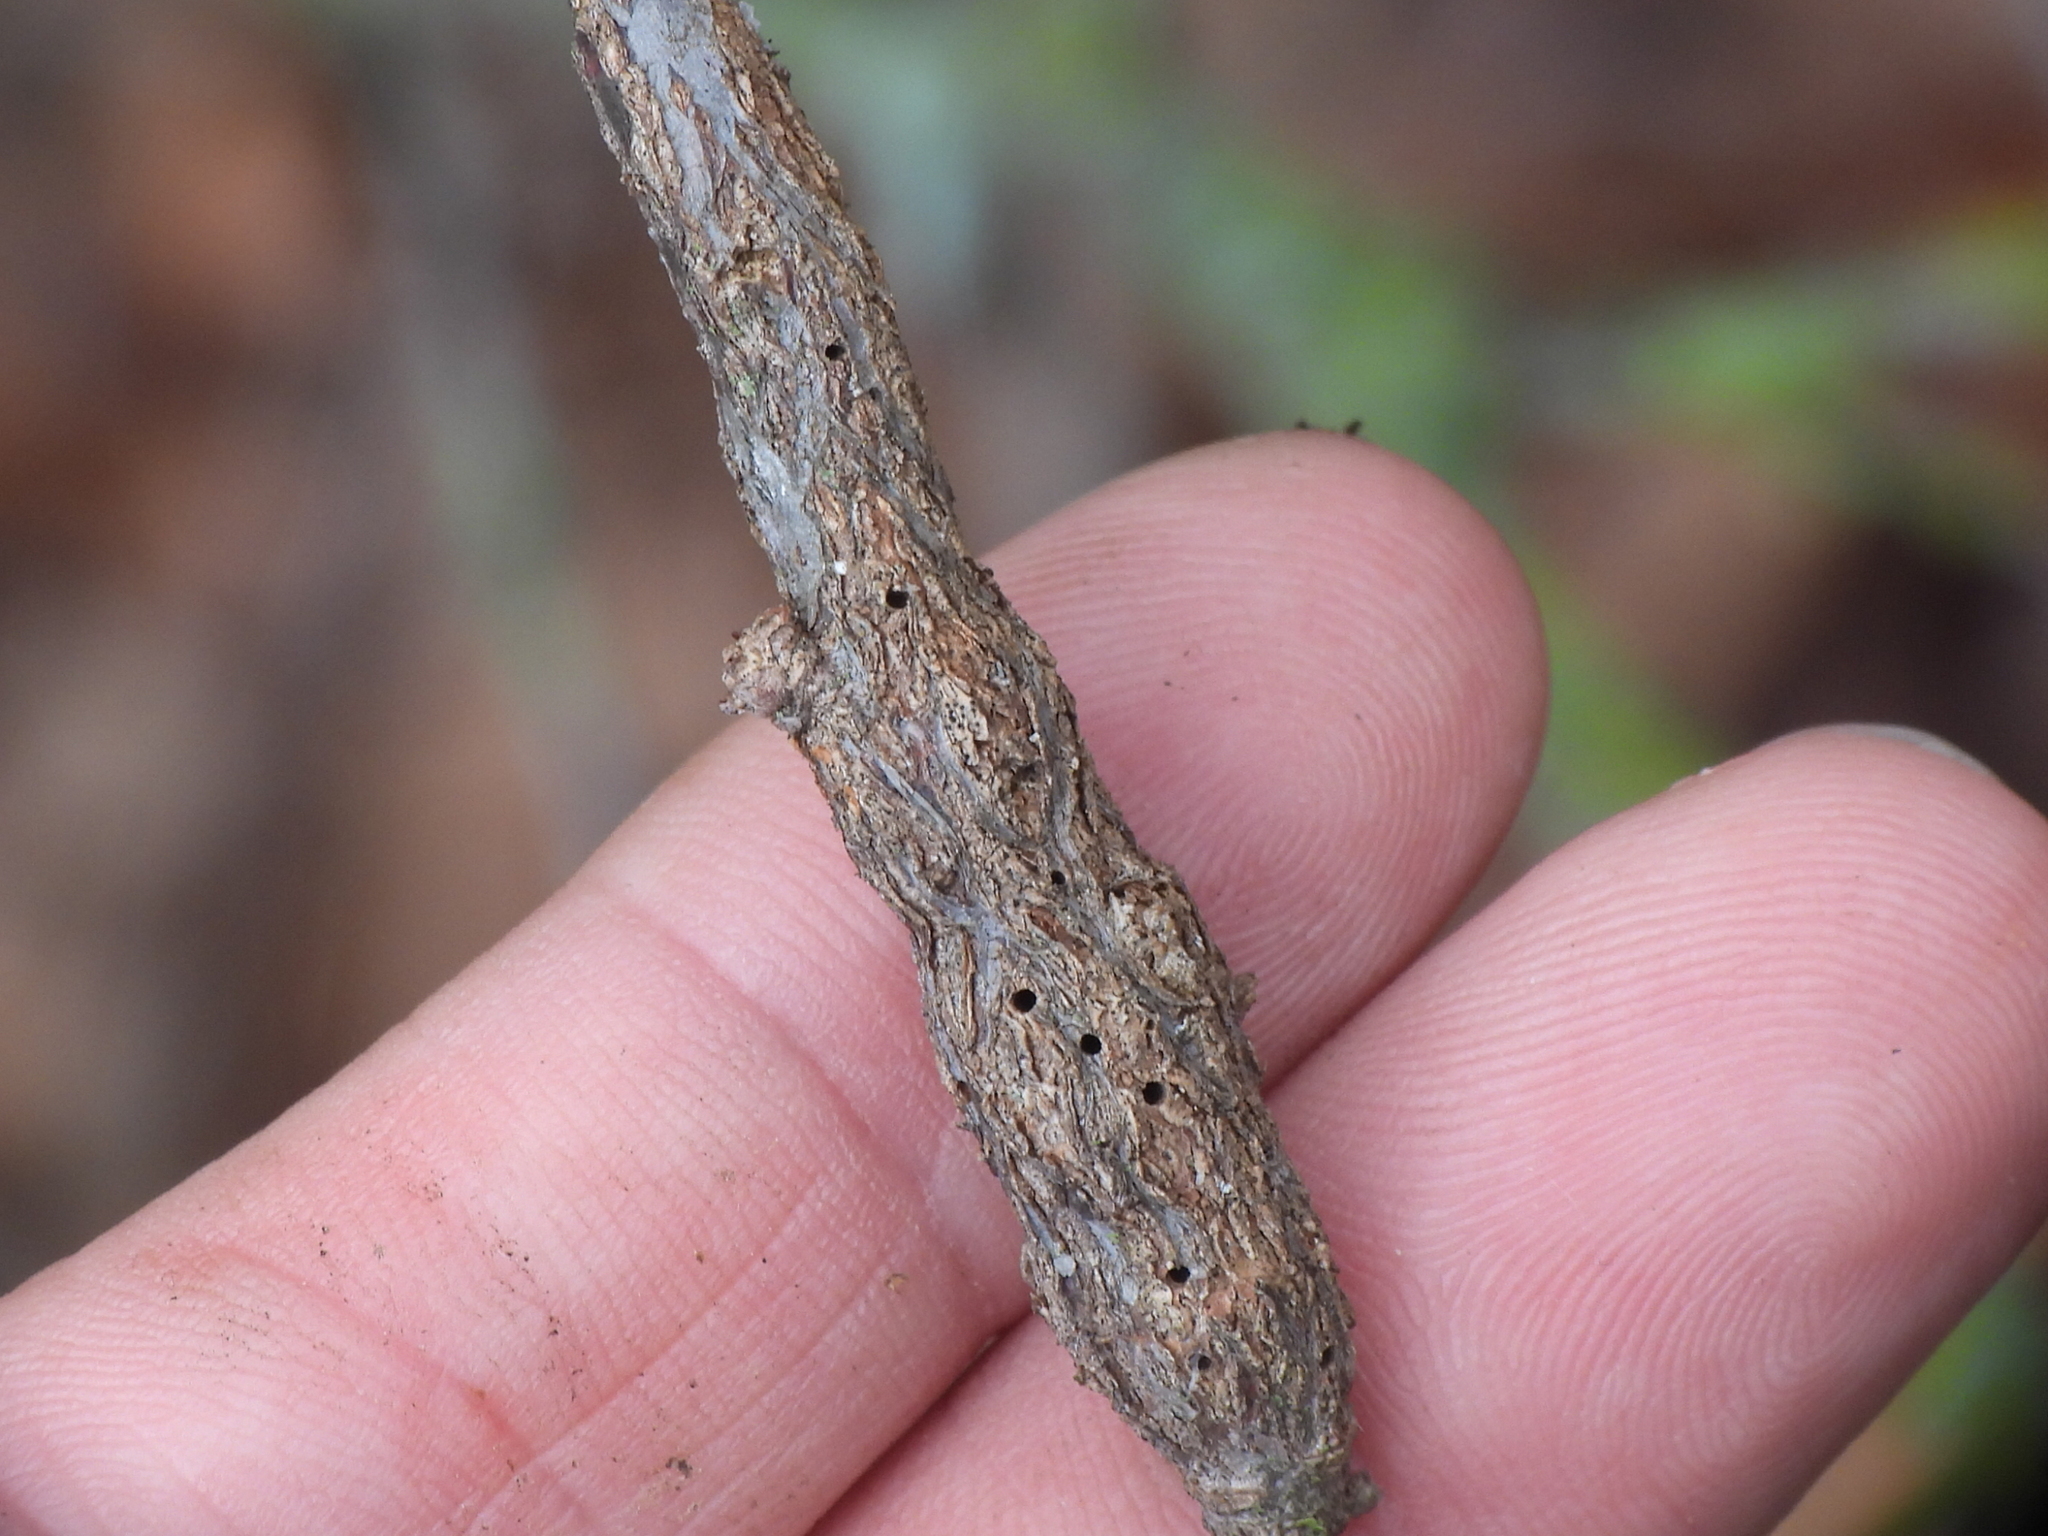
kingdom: Animalia
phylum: Arthropoda
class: Insecta
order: Diptera
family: Cecidomyiidae
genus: Bruggmanniella
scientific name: Bruggmanniella bumeliae
